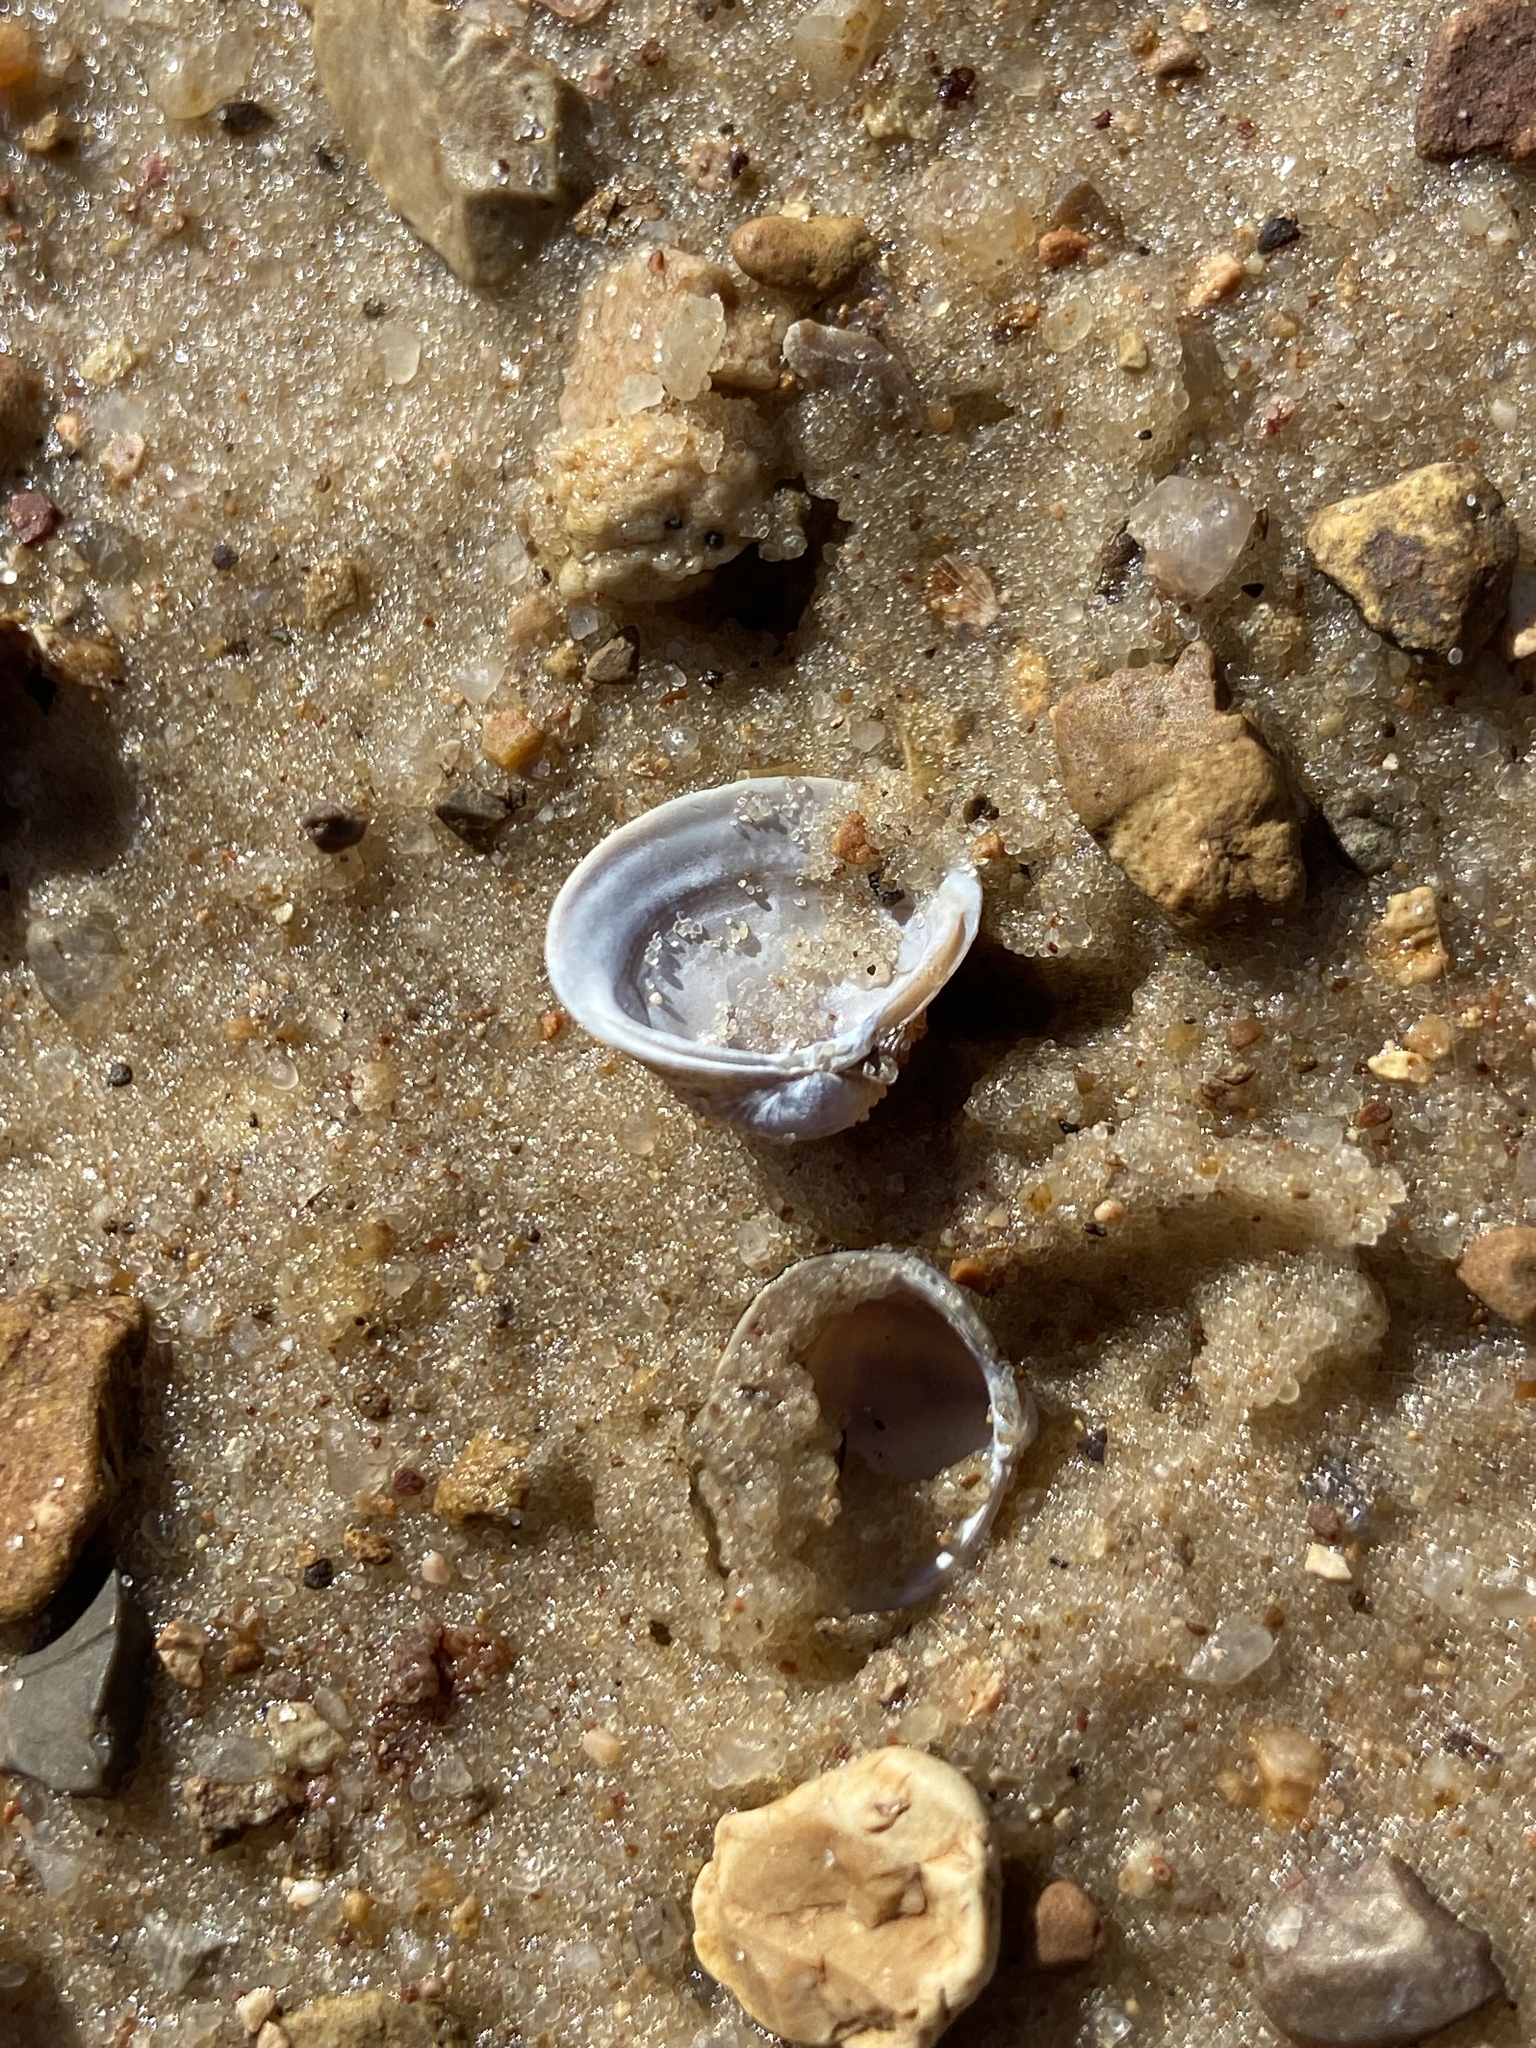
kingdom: Animalia
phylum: Mollusca
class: Bivalvia
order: Venerida
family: Cyrenidae
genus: Corbicula
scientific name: Corbicula fluminea
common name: Asian clam
